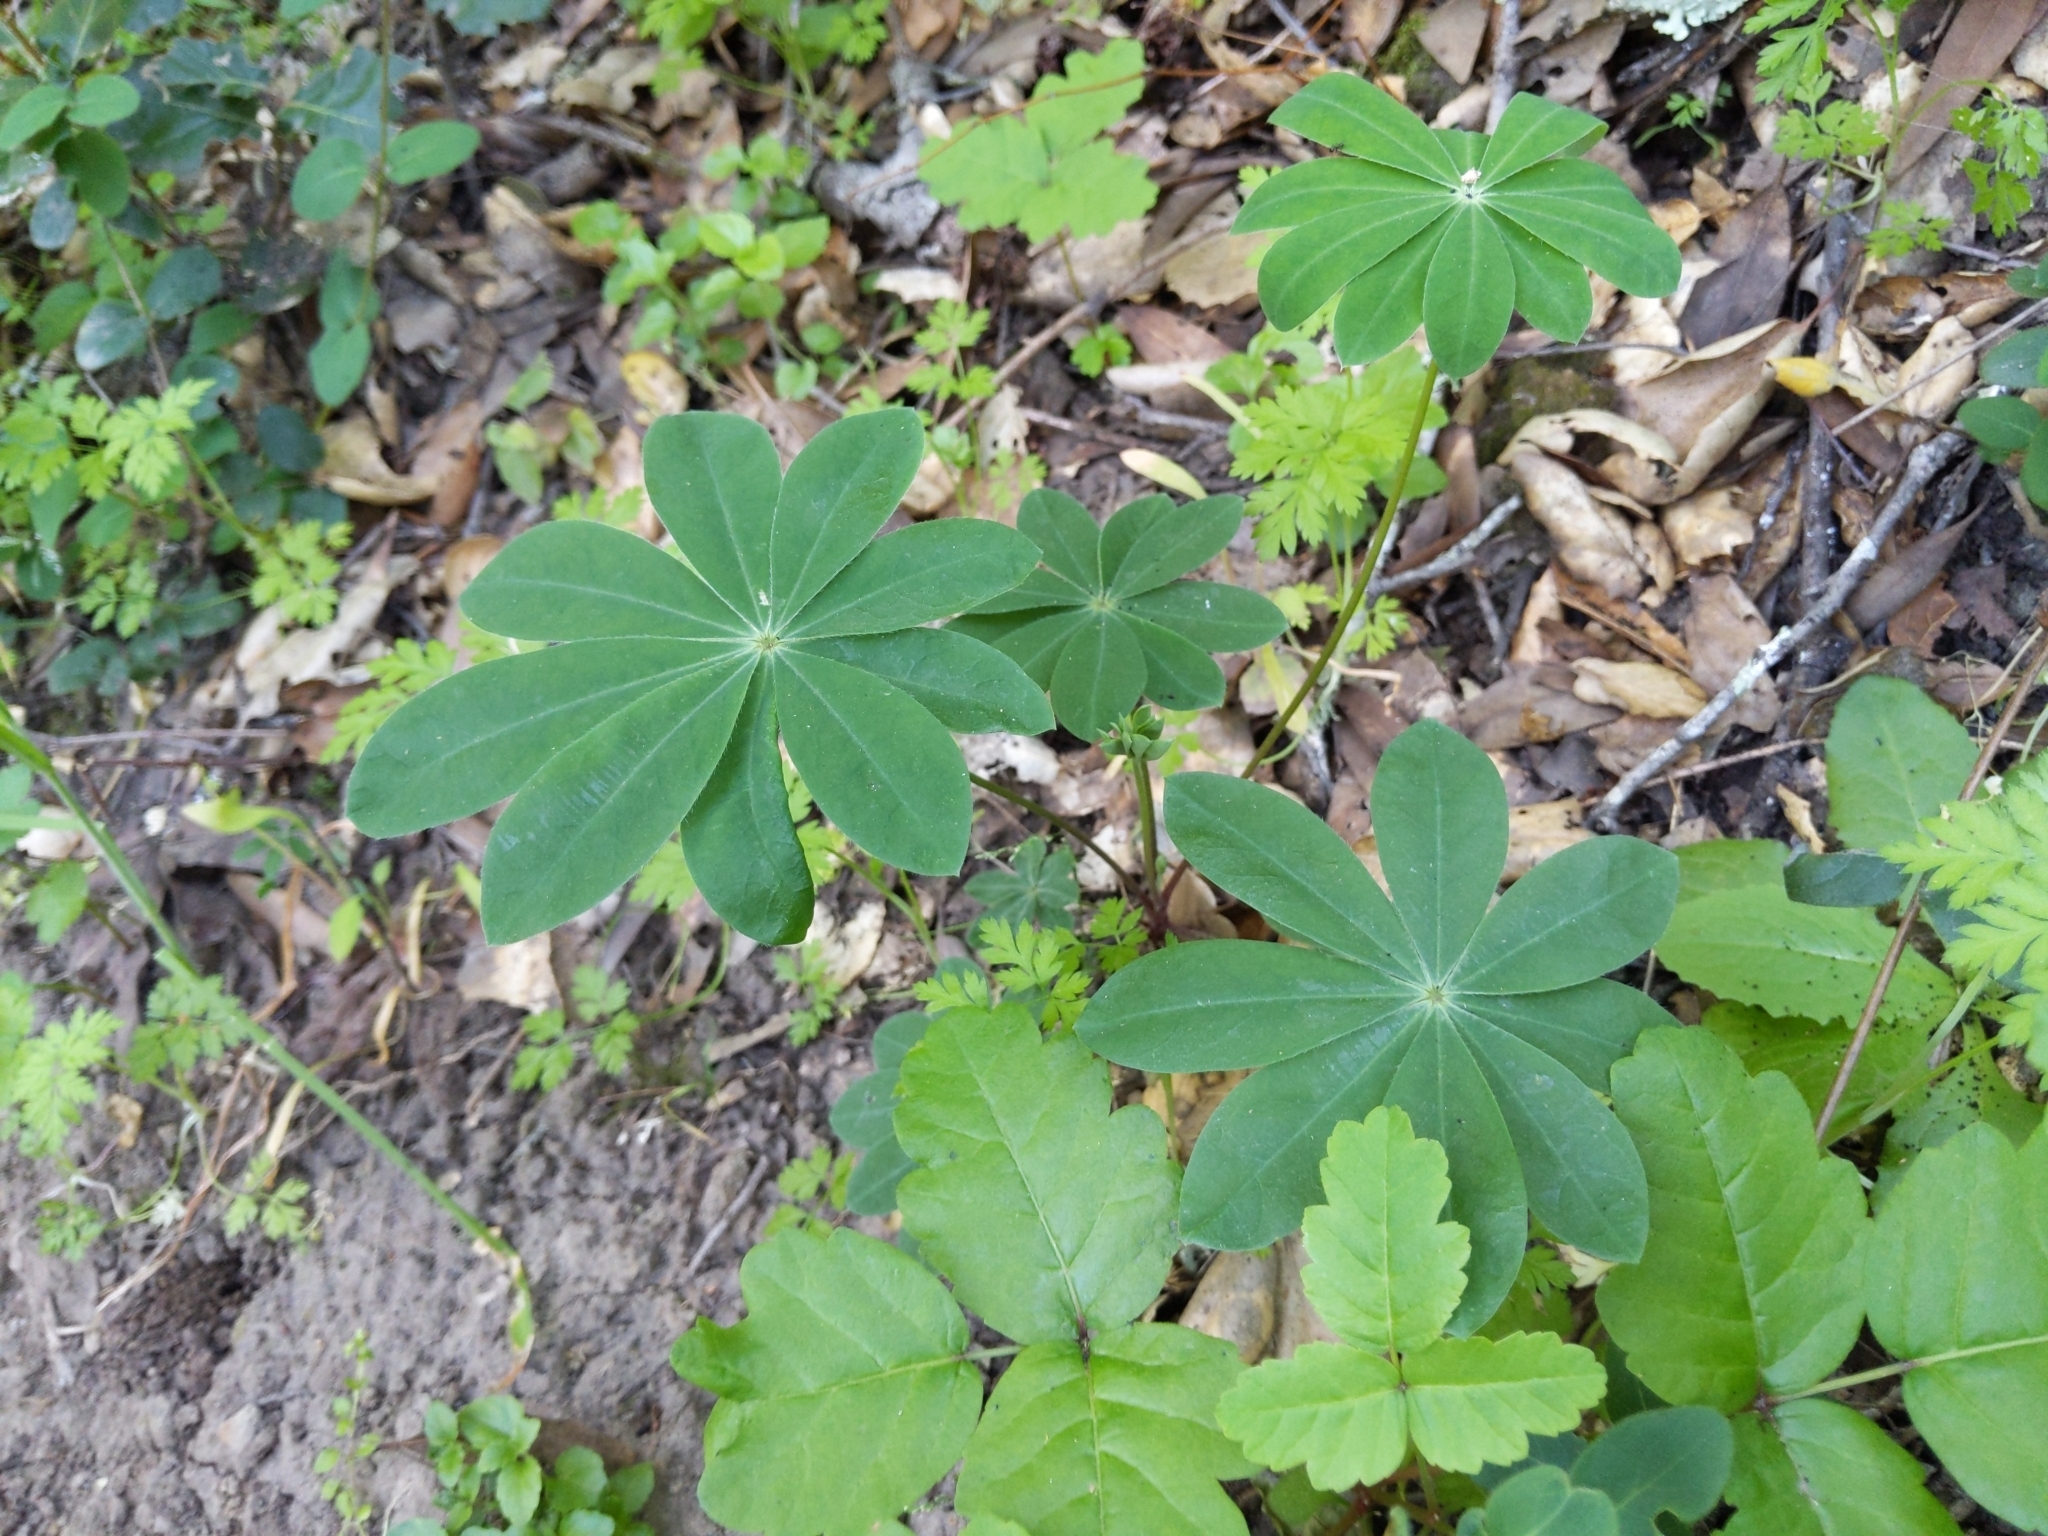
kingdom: Plantae
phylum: Tracheophyta
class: Magnoliopsida
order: Fabales
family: Fabaceae
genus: Lupinus
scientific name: Lupinus latifolius
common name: Broad-leaved lupine
